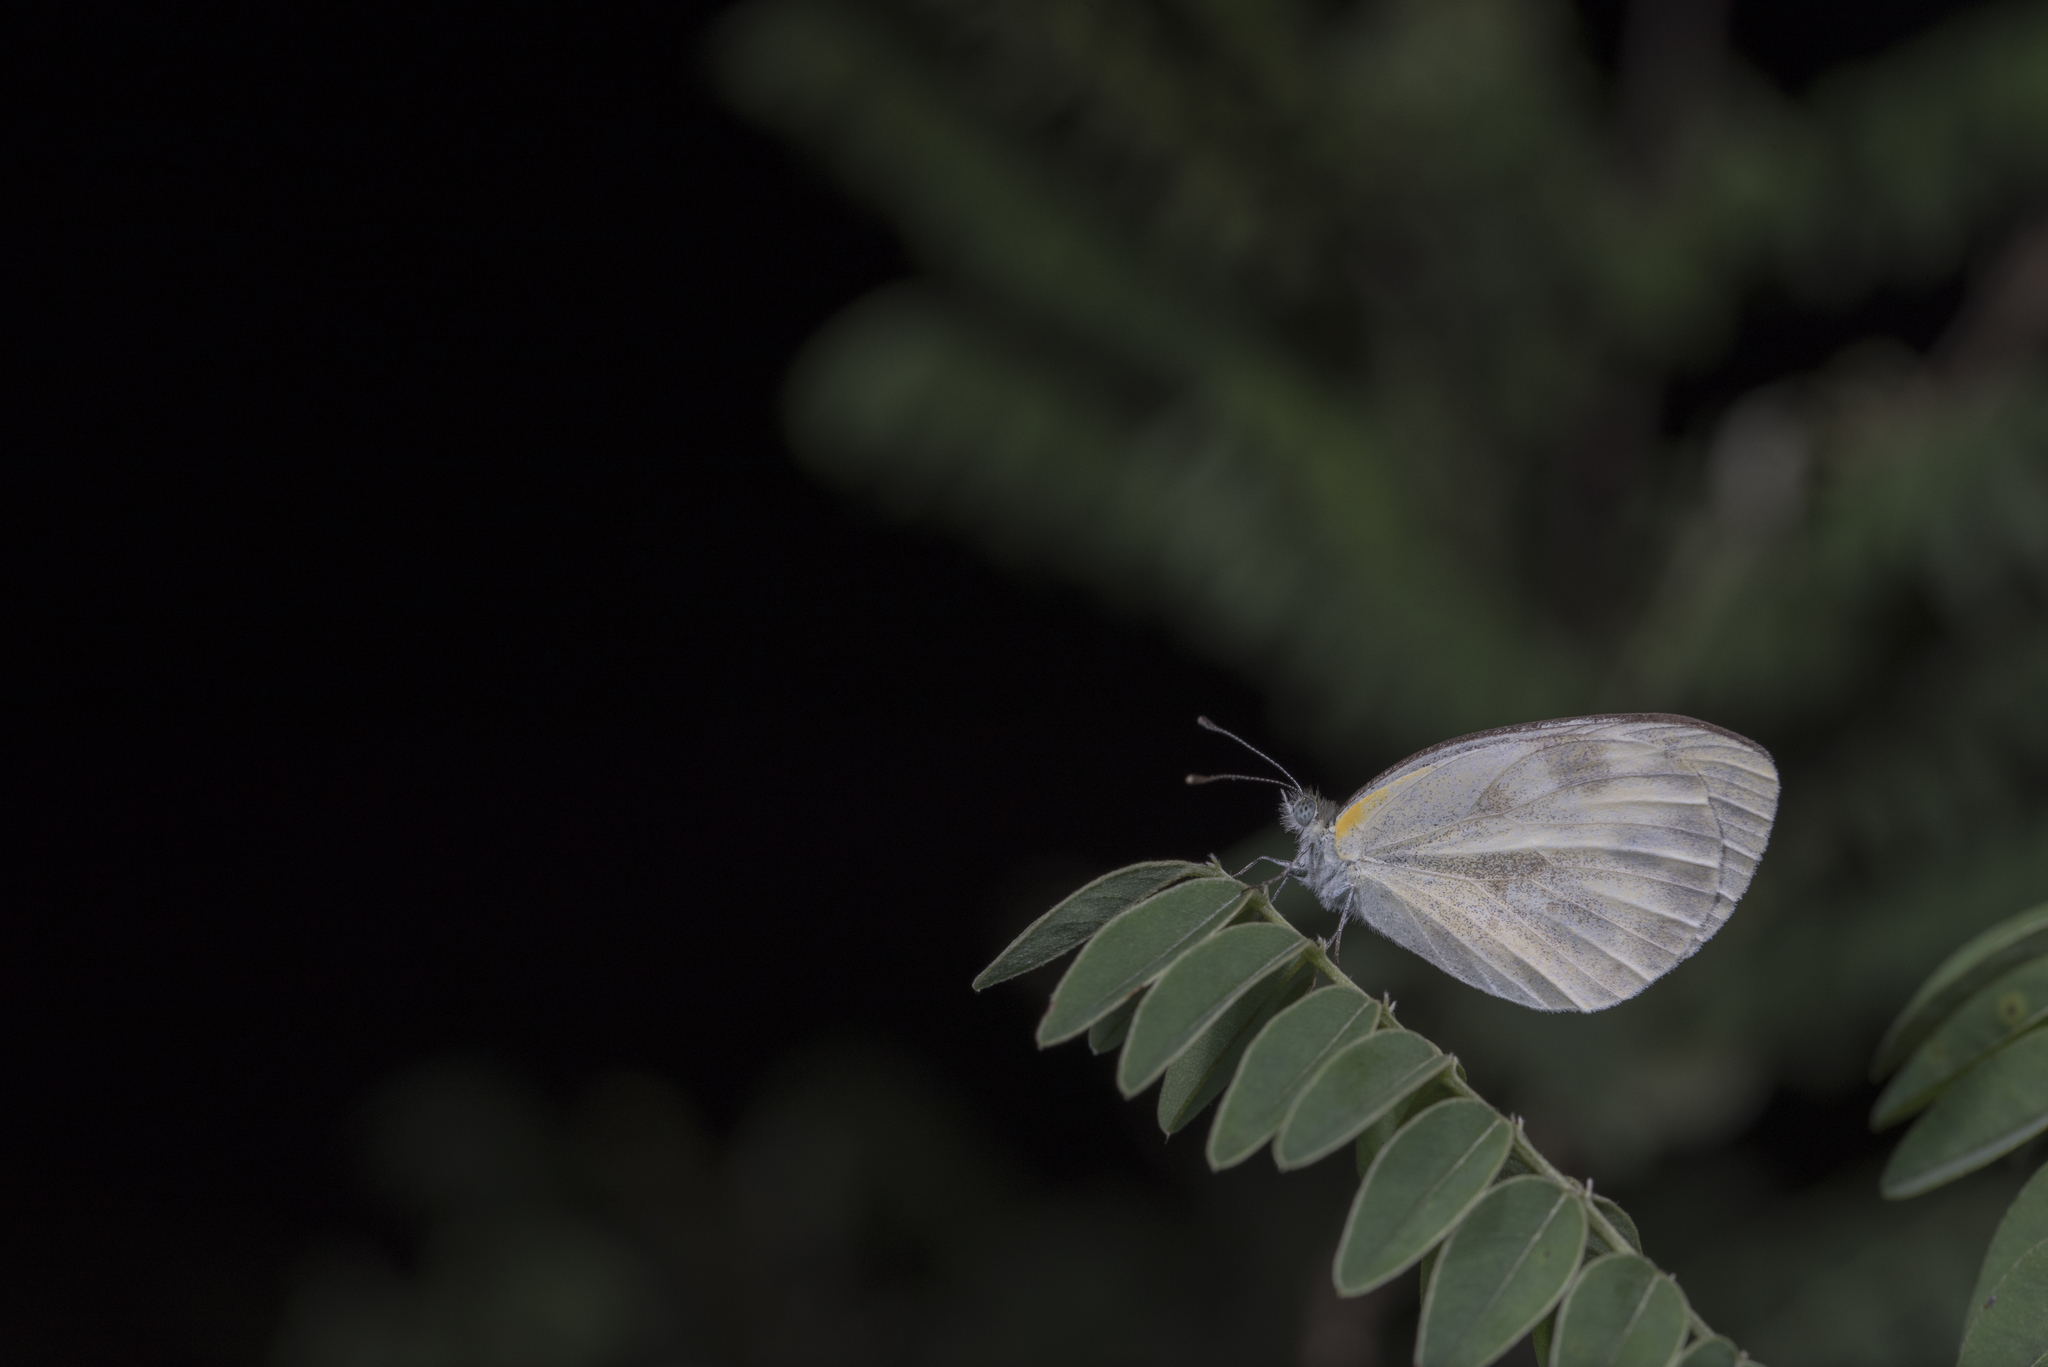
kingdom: Animalia
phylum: Arthropoda
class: Insecta
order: Lepidoptera
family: Pieridae
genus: Pieris
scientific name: Pieris canidia
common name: Indian cabbage white
